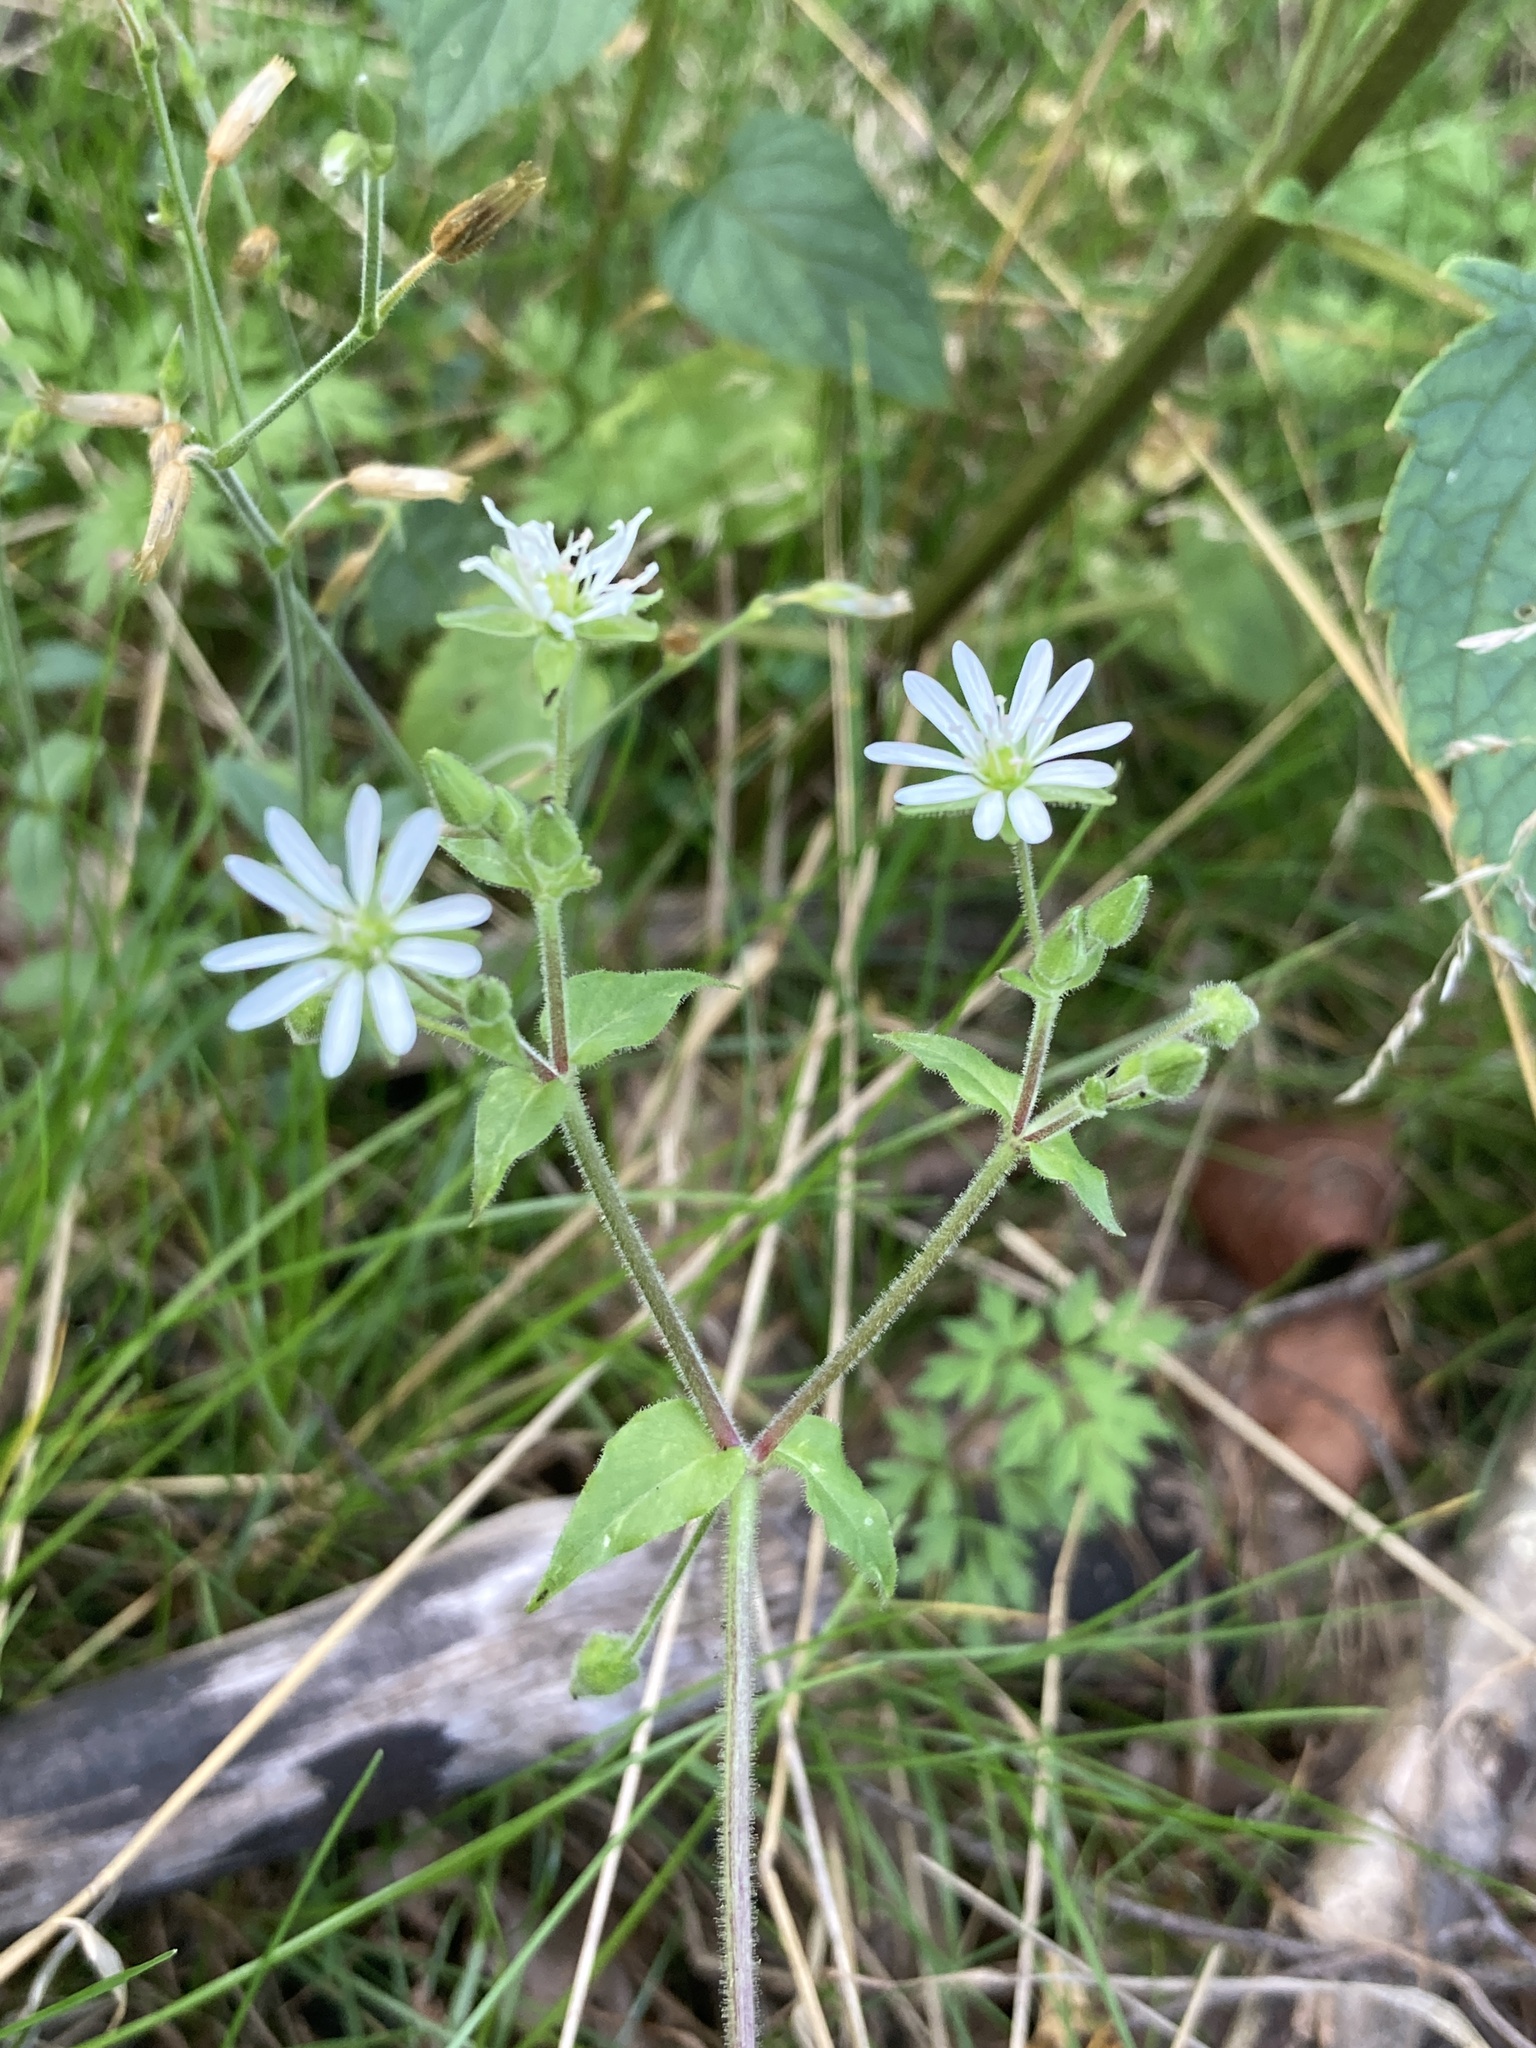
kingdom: Plantae
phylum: Tracheophyta
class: Magnoliopsida
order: Caryophyllales
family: Caryophyllaceae
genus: Stellaria
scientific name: Stellaria aquatica
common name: Water chickweed
